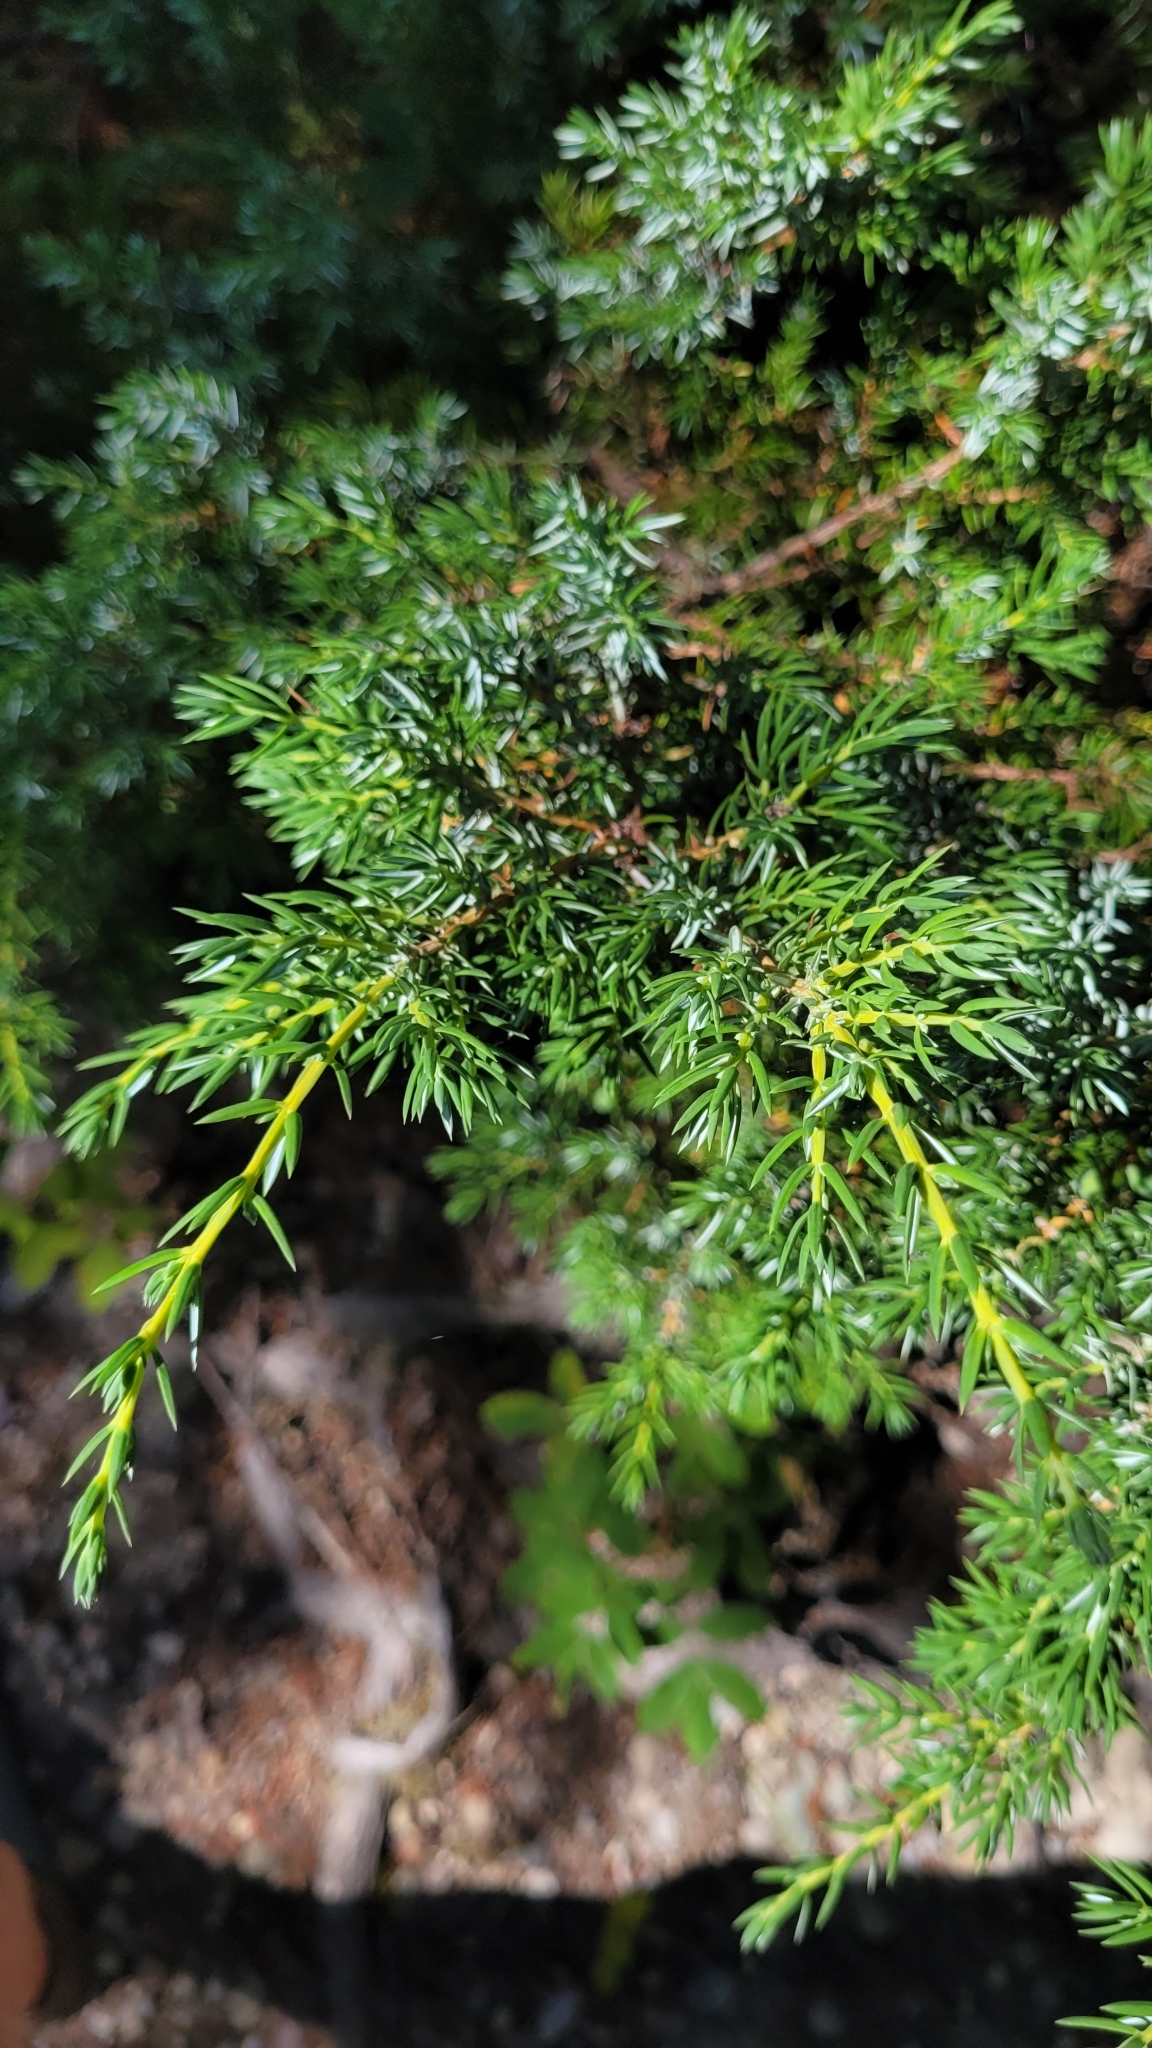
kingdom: Plantae
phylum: Tracheophyta
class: Pinopsida
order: Pinales
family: Cupressaceae
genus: Juniperus
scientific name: Juniperus communis
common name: Common juniper
